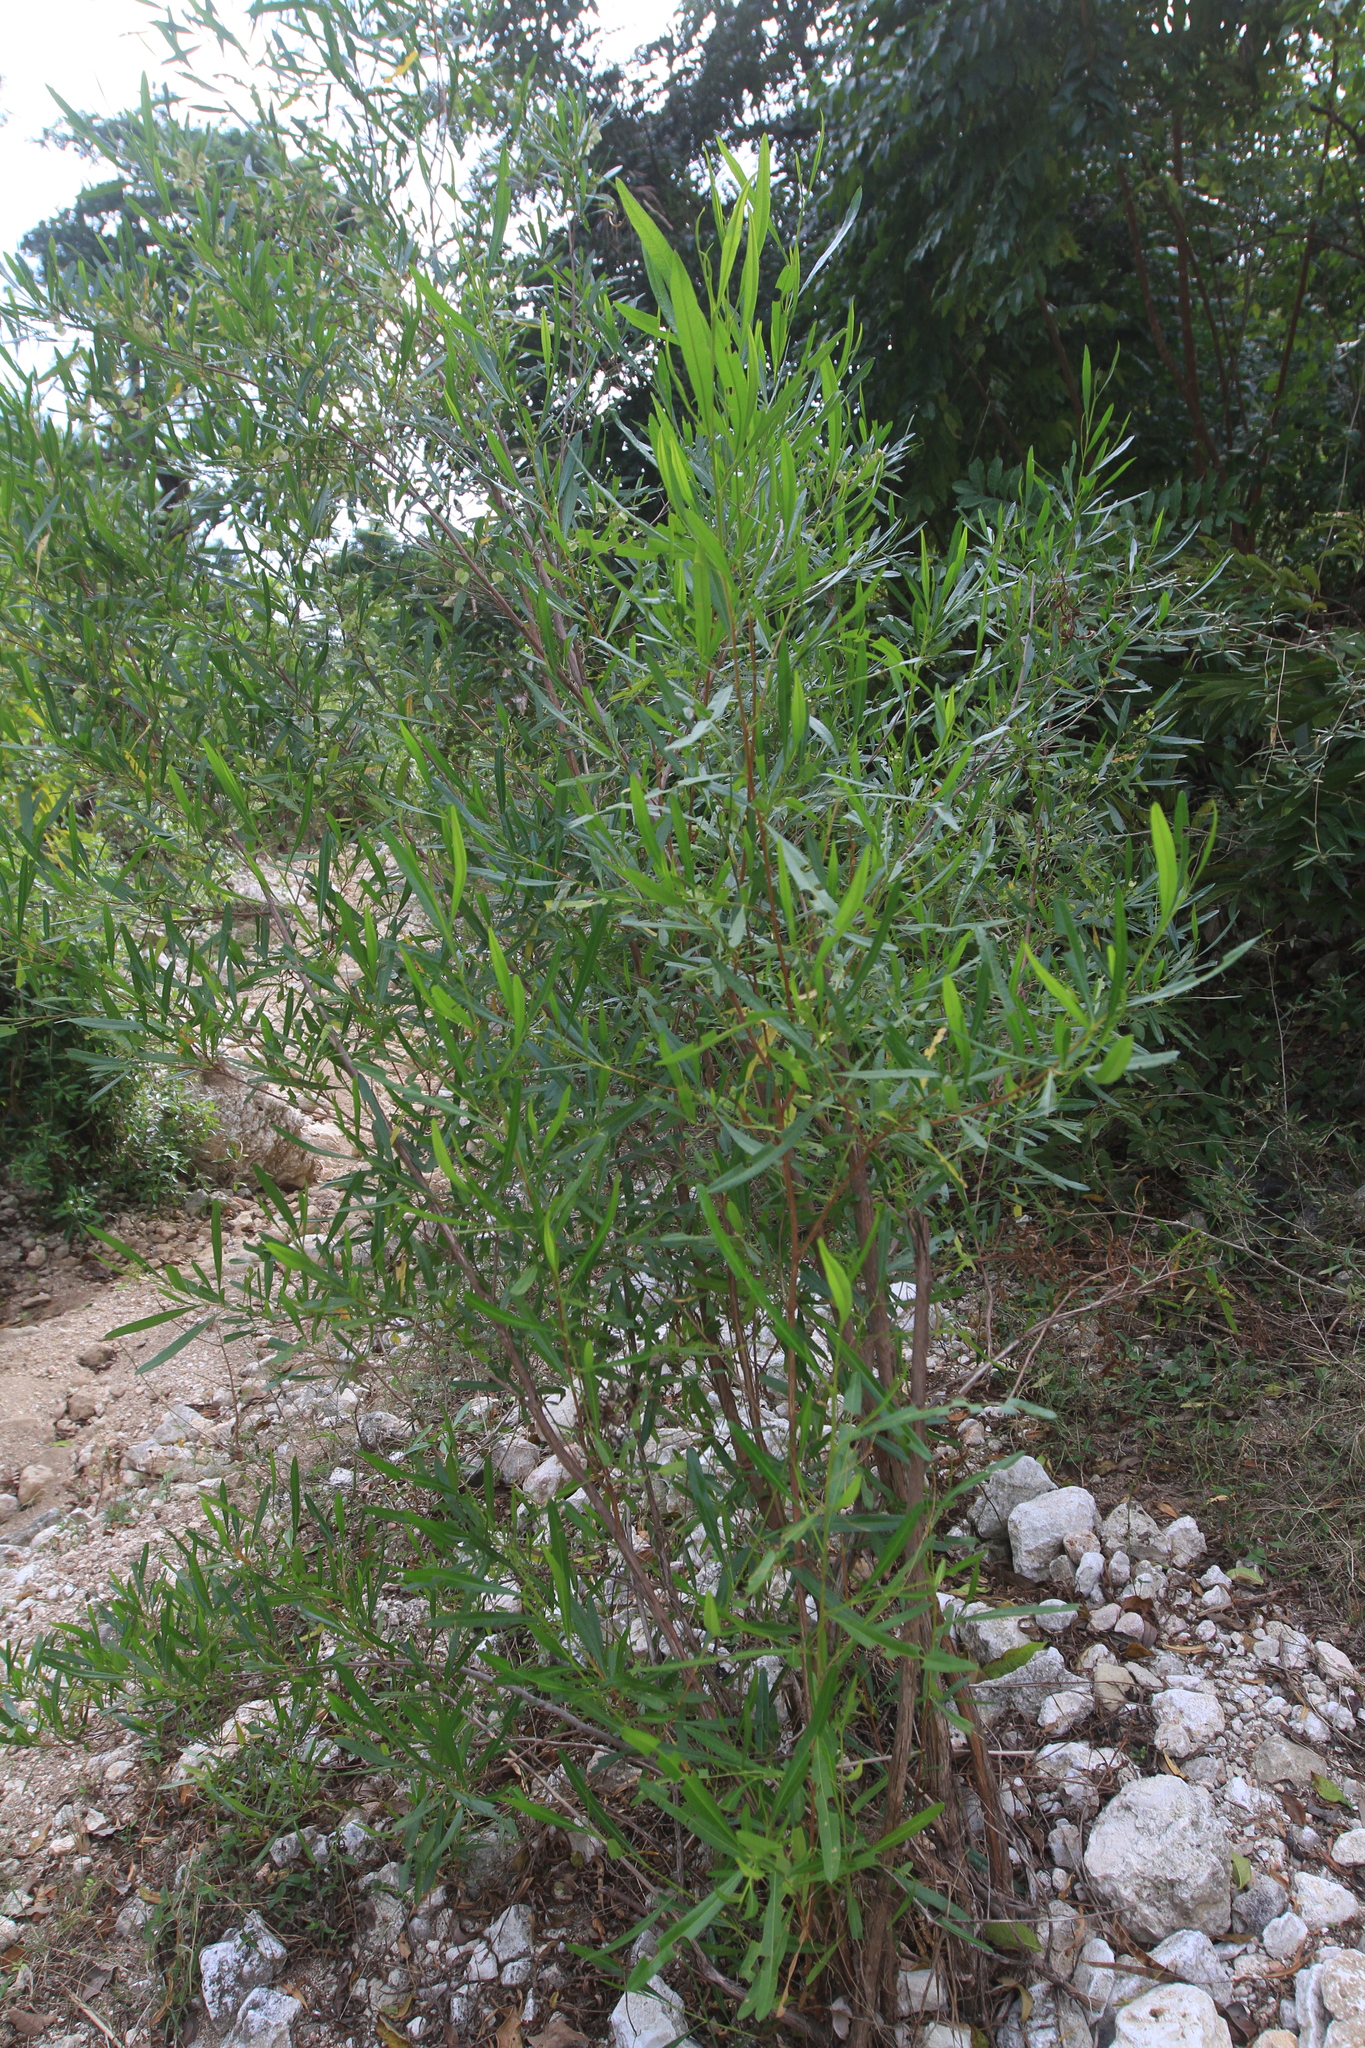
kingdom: Plantae
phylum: Tracheophyta
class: Magnoliopsida
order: Sapindales
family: Sapindaceae
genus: Dodonaea
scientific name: Dodonaea viscosa
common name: Hopbush
